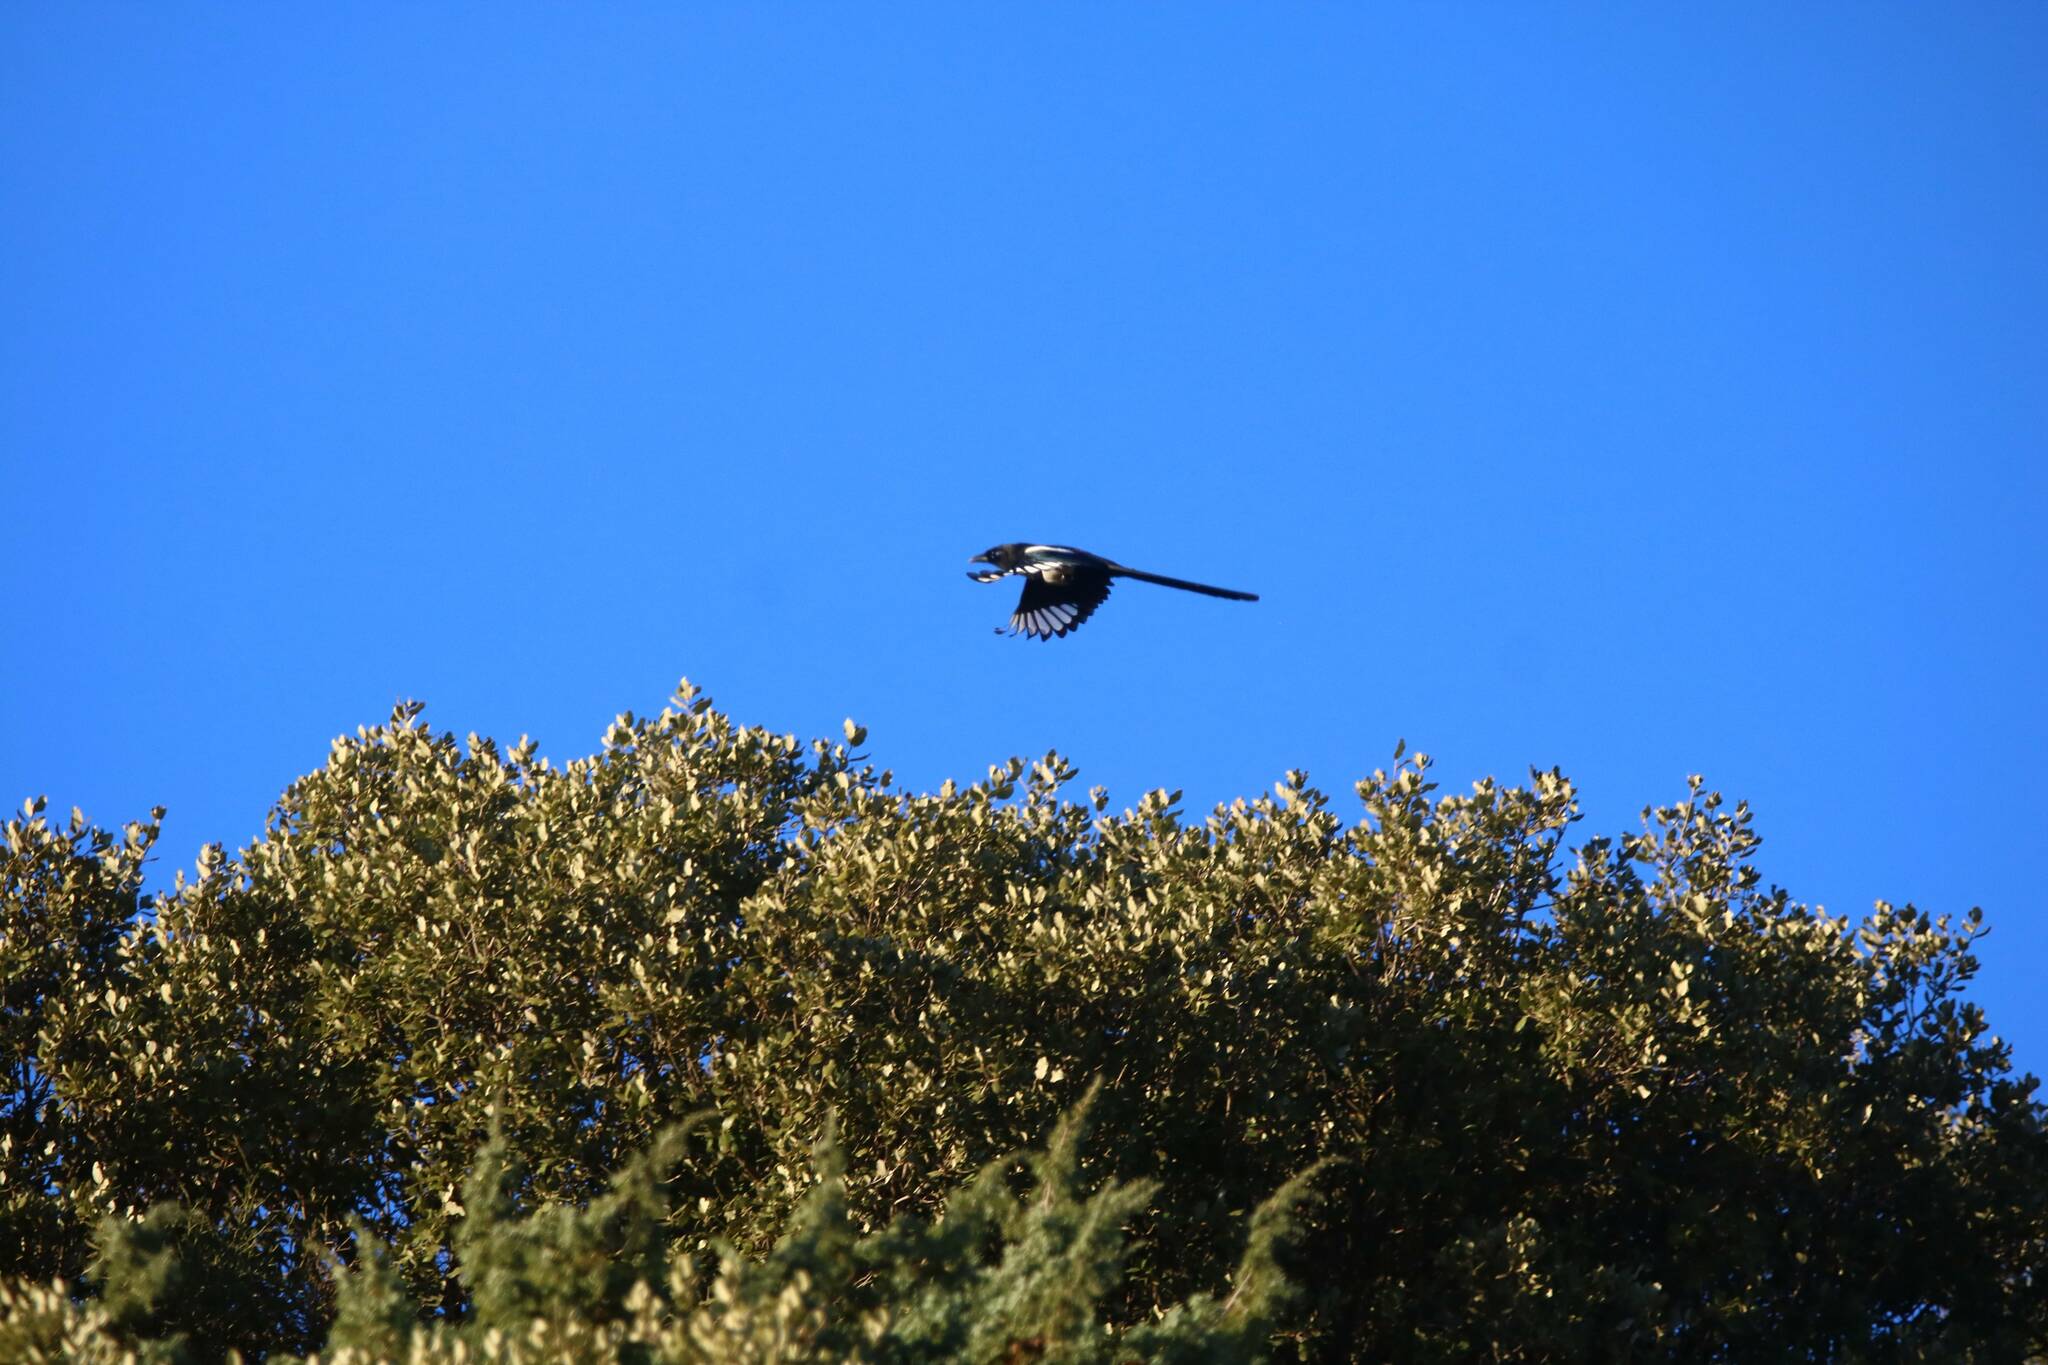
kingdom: Animalia
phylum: Chordata
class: Aves
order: Passeriformes
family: Corvidae
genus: Pica
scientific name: Pica mauritanica
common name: Maghreb magpie
